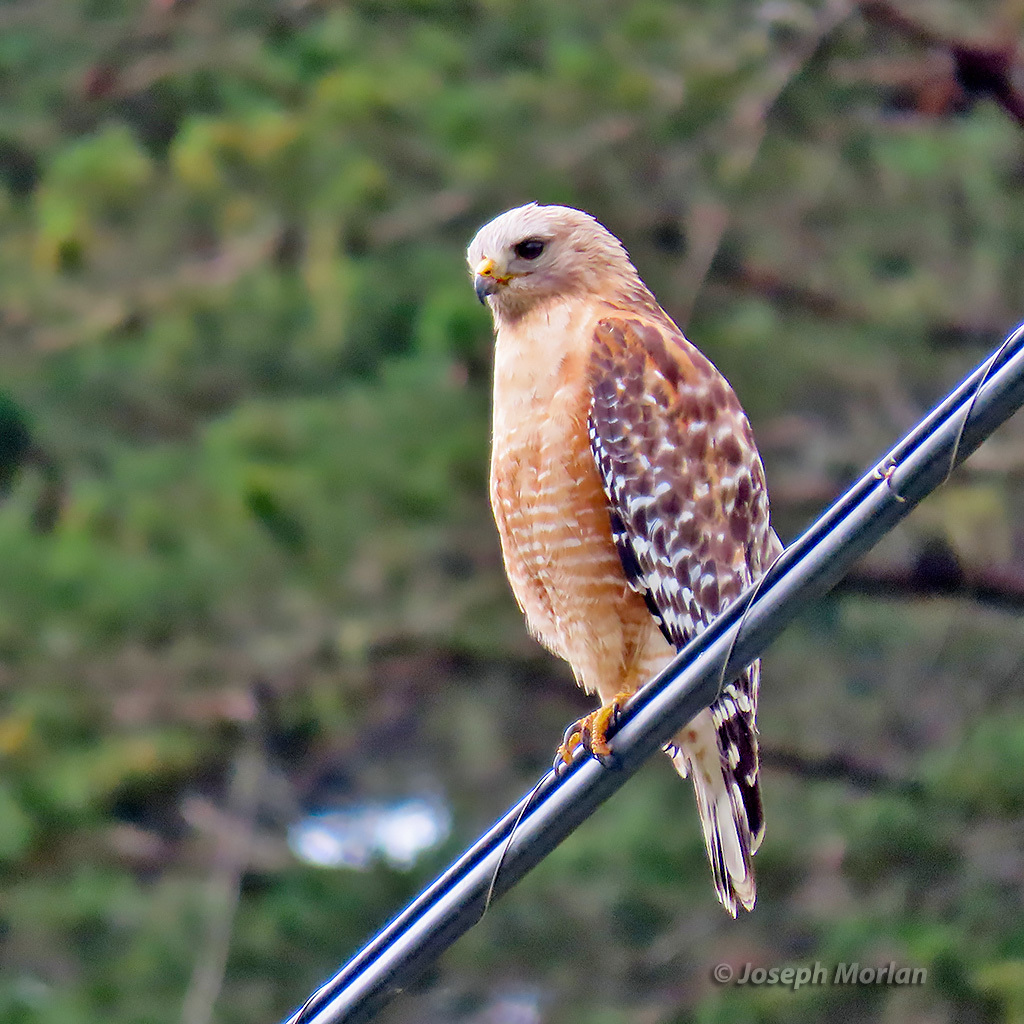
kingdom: Animalia
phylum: Chordata
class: Aves
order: Accipitriformes
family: Accipitridae
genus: Buteo
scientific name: Buteo lineatus
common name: Red-shouldered hawk
